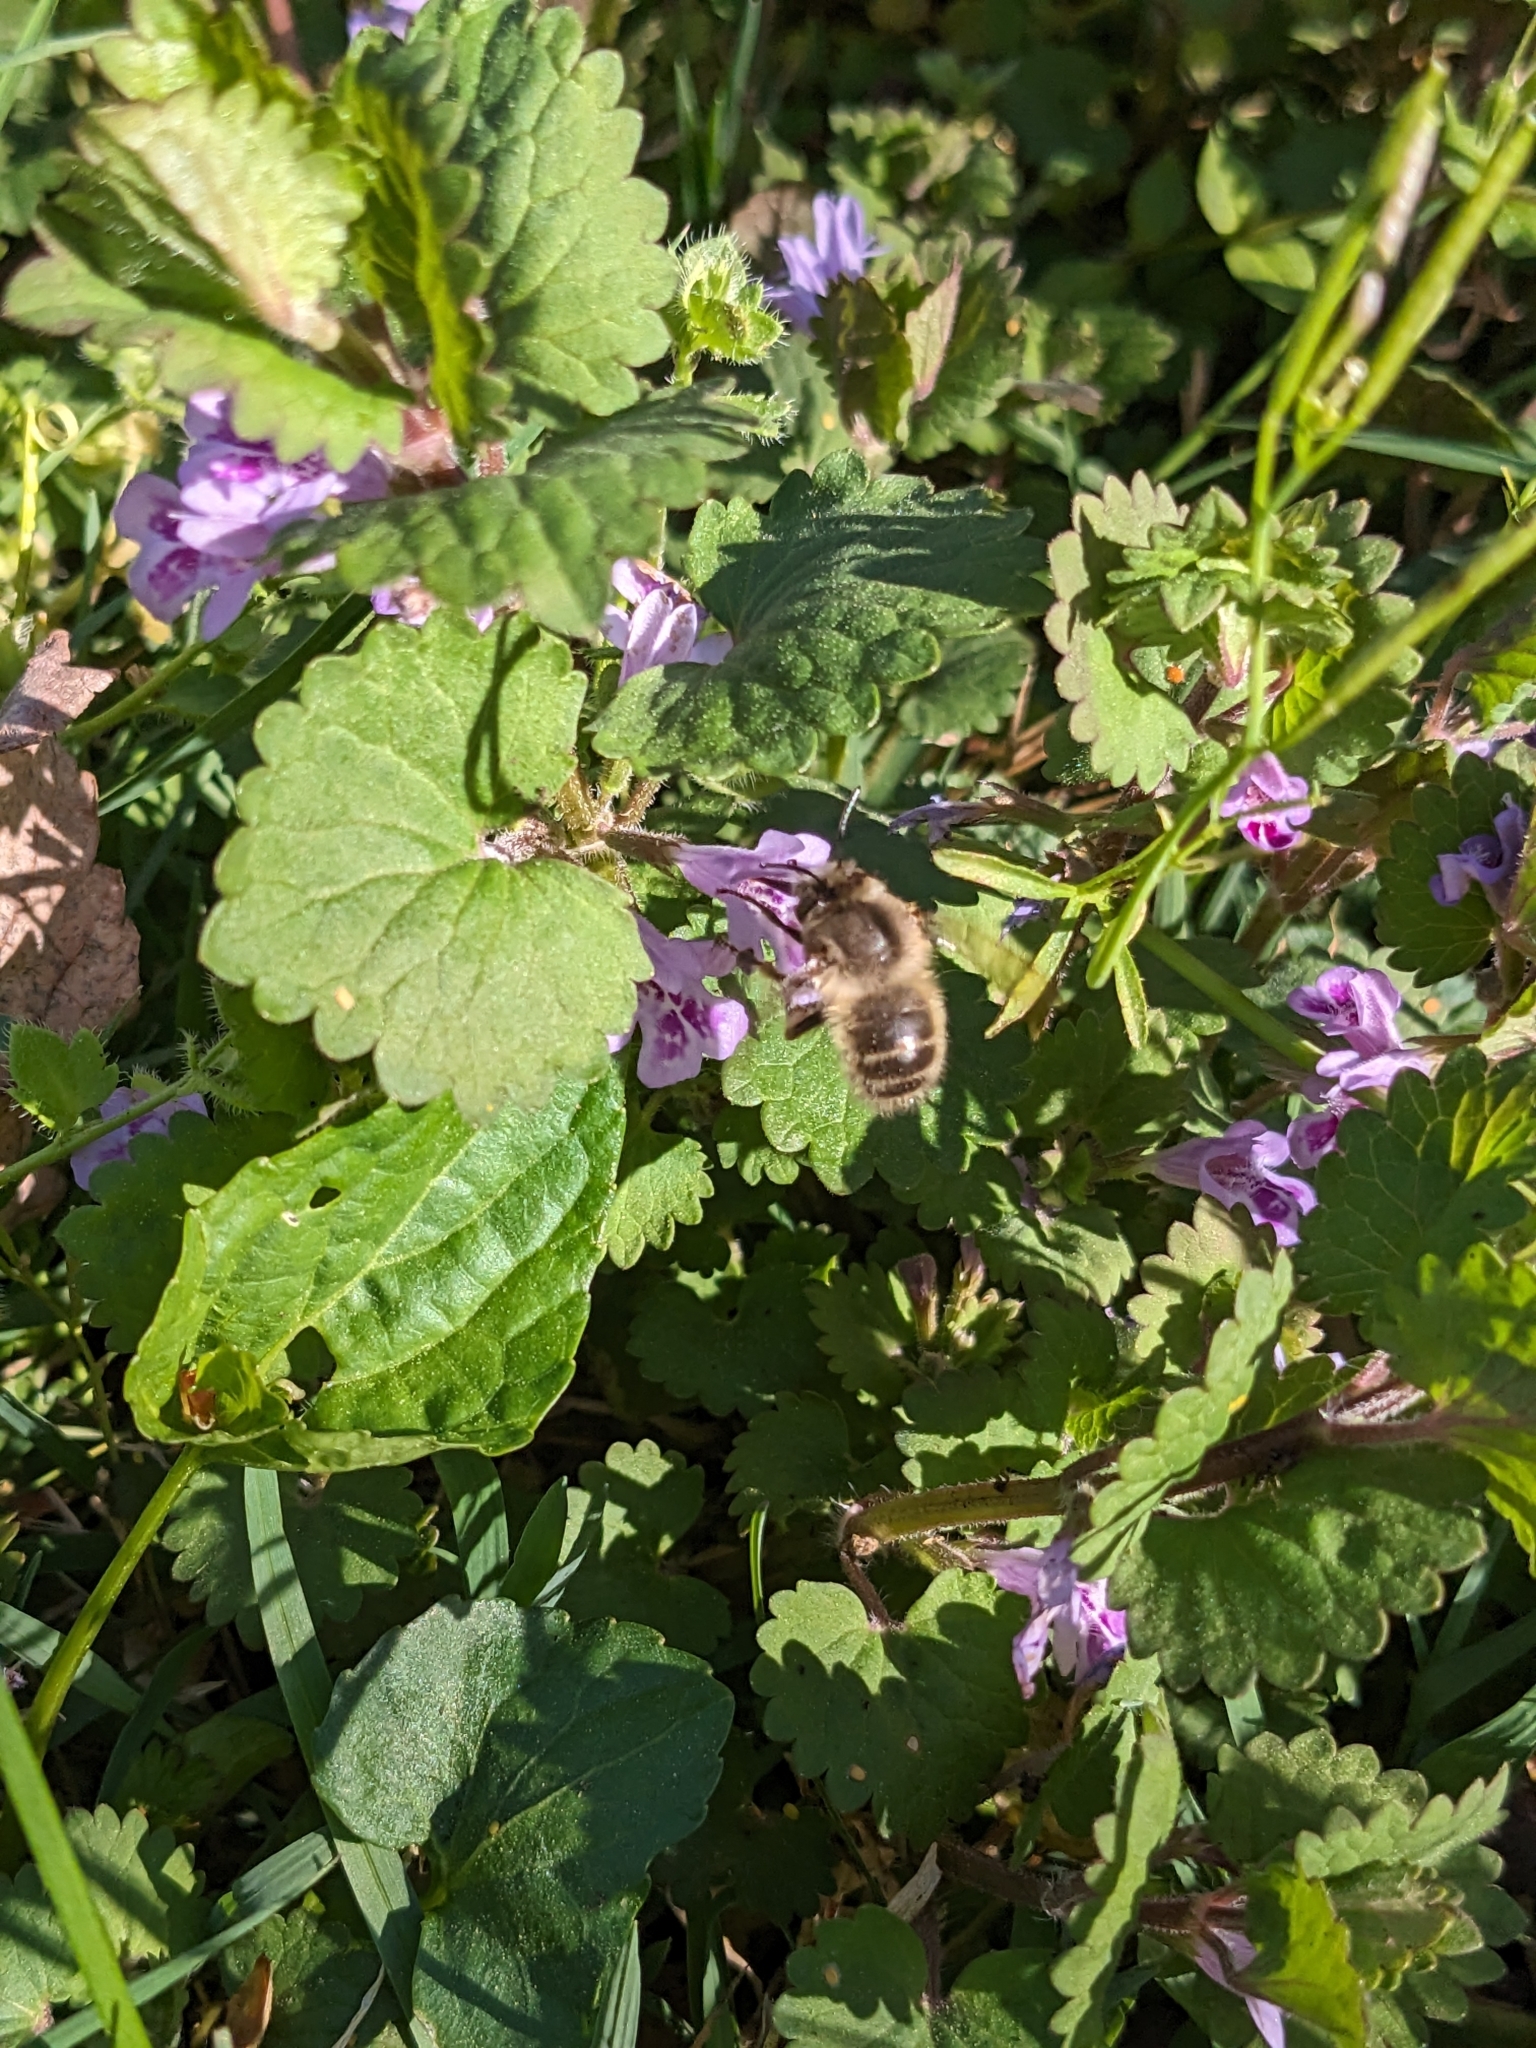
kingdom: Animalia
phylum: Arthropoda
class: Insecta
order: Hymenoptera
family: Apidae
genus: Anthophora
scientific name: Anthophora villosula
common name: Asian shaggy digger
